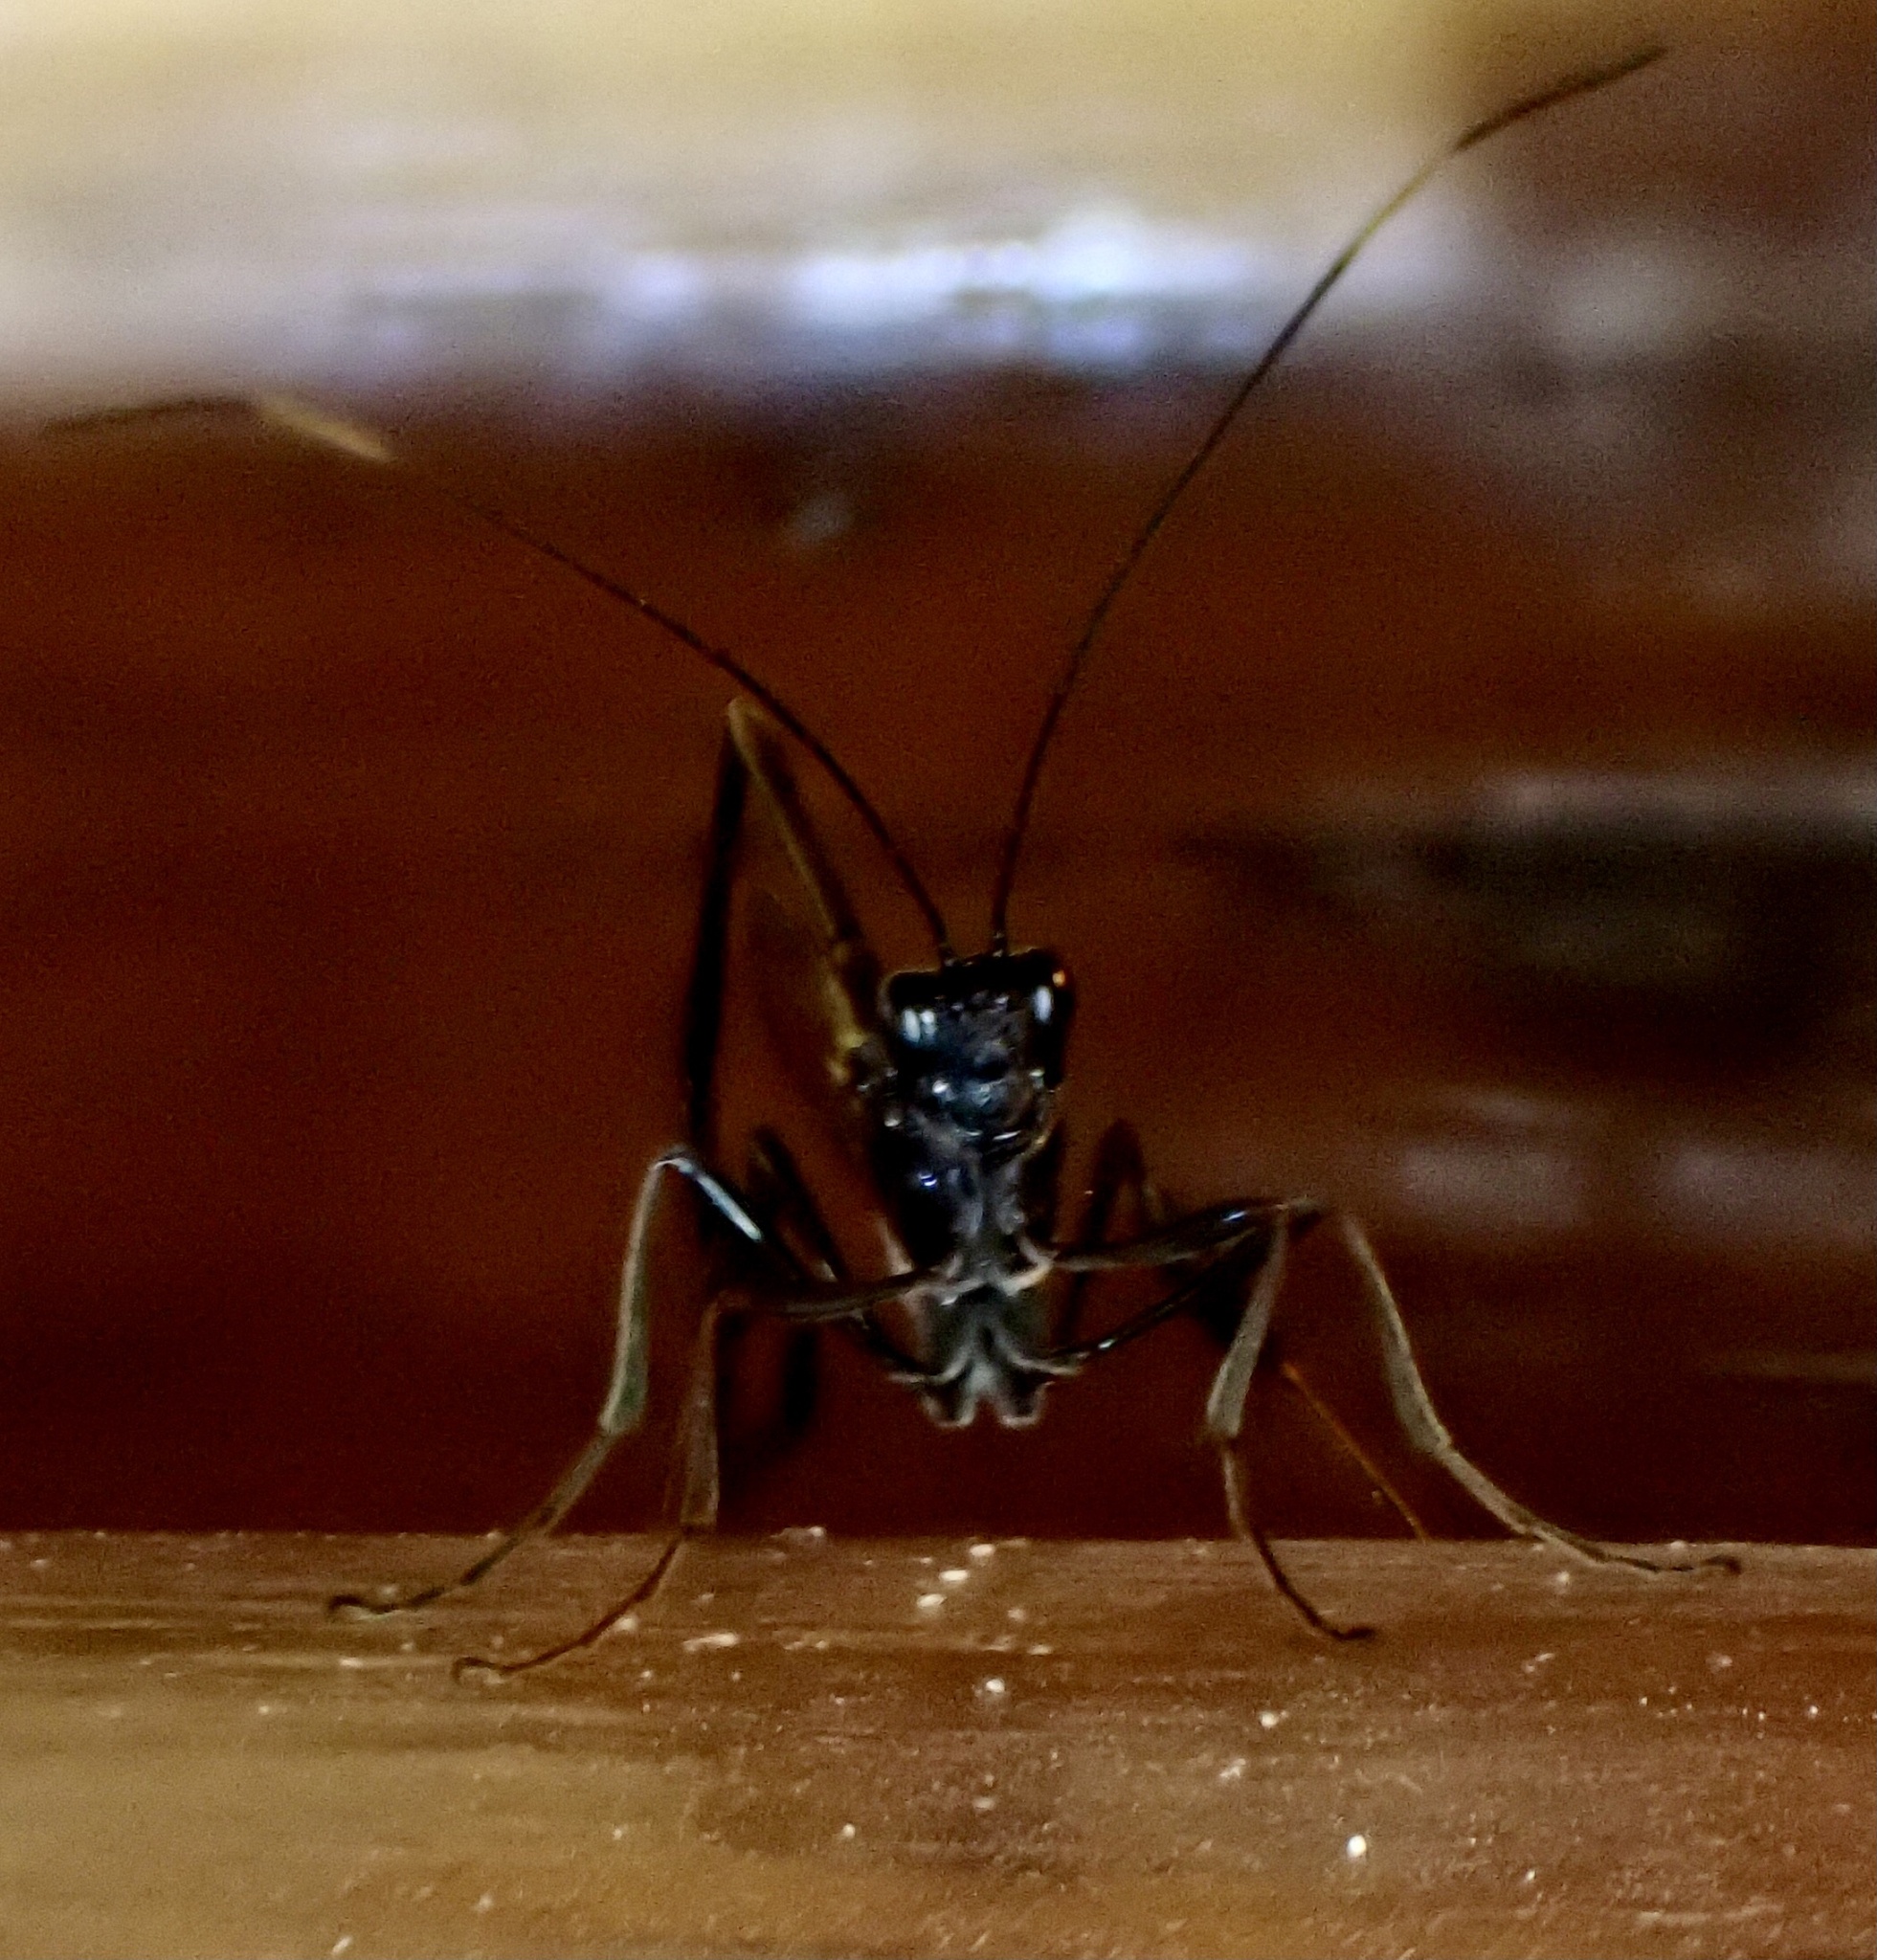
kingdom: Animalia
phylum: Arthropoda
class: Insecta
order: Hymenoptera
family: Pelecinidae
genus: Pelecinus
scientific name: Pelecinus polyturator
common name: American pelecinid wasp
